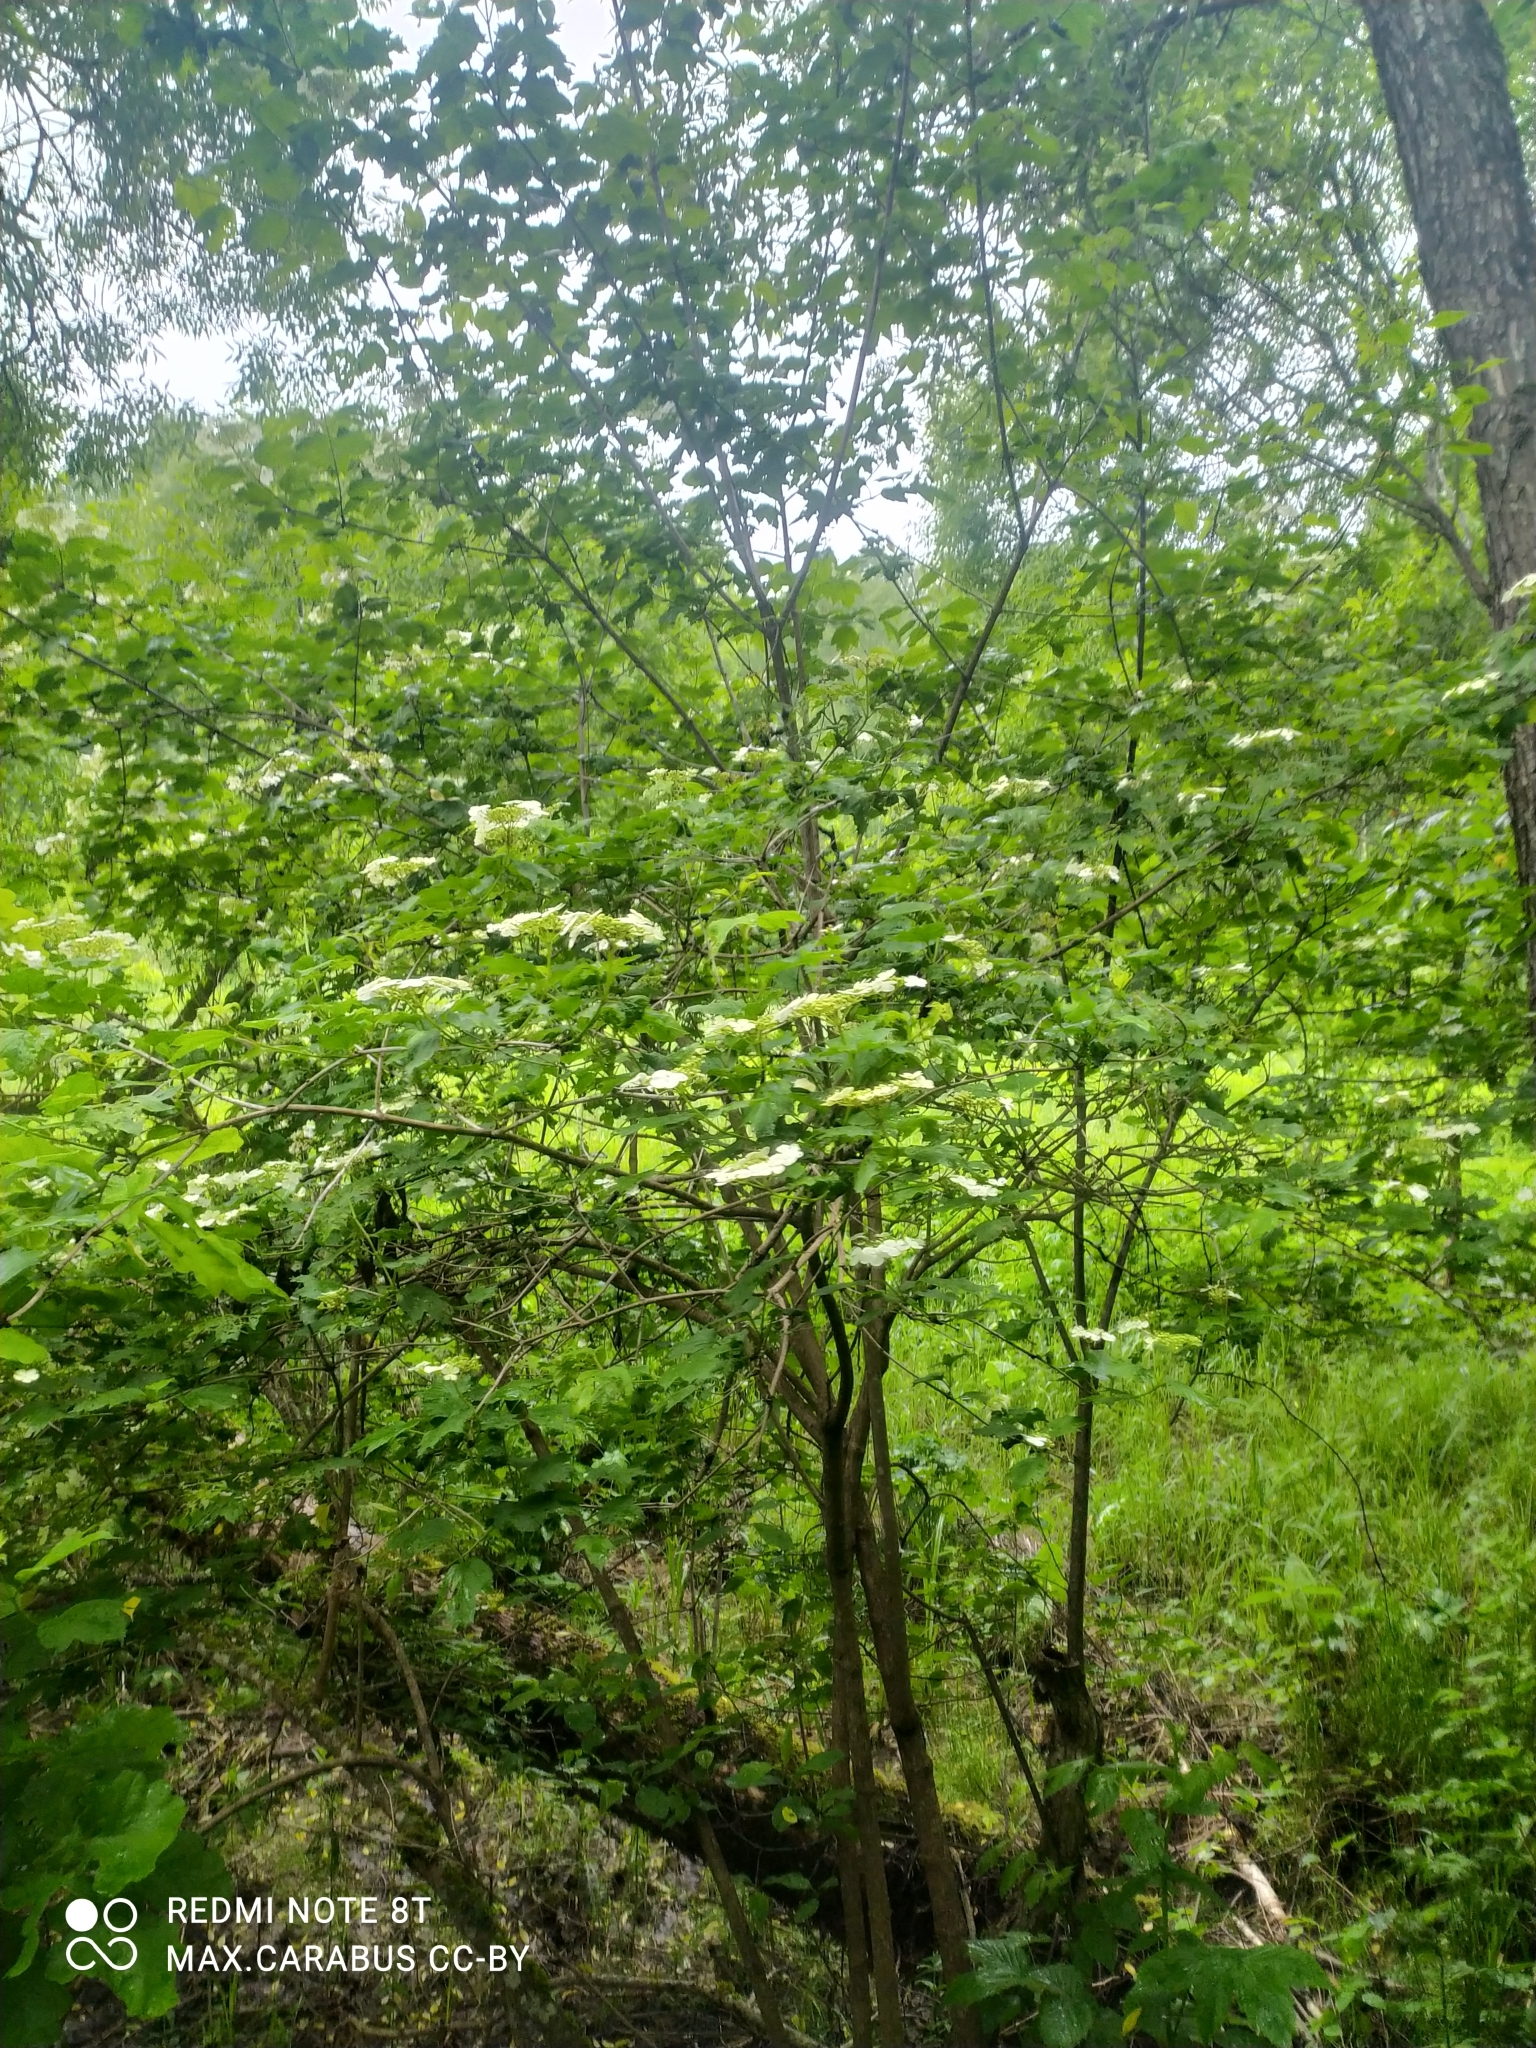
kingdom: Plantae
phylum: Tracheophyta
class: Magnoliopsida
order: Dipsacales
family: Viburnaceae
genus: Viburnum
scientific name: Viburnum opulus
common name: Guelder-rose
